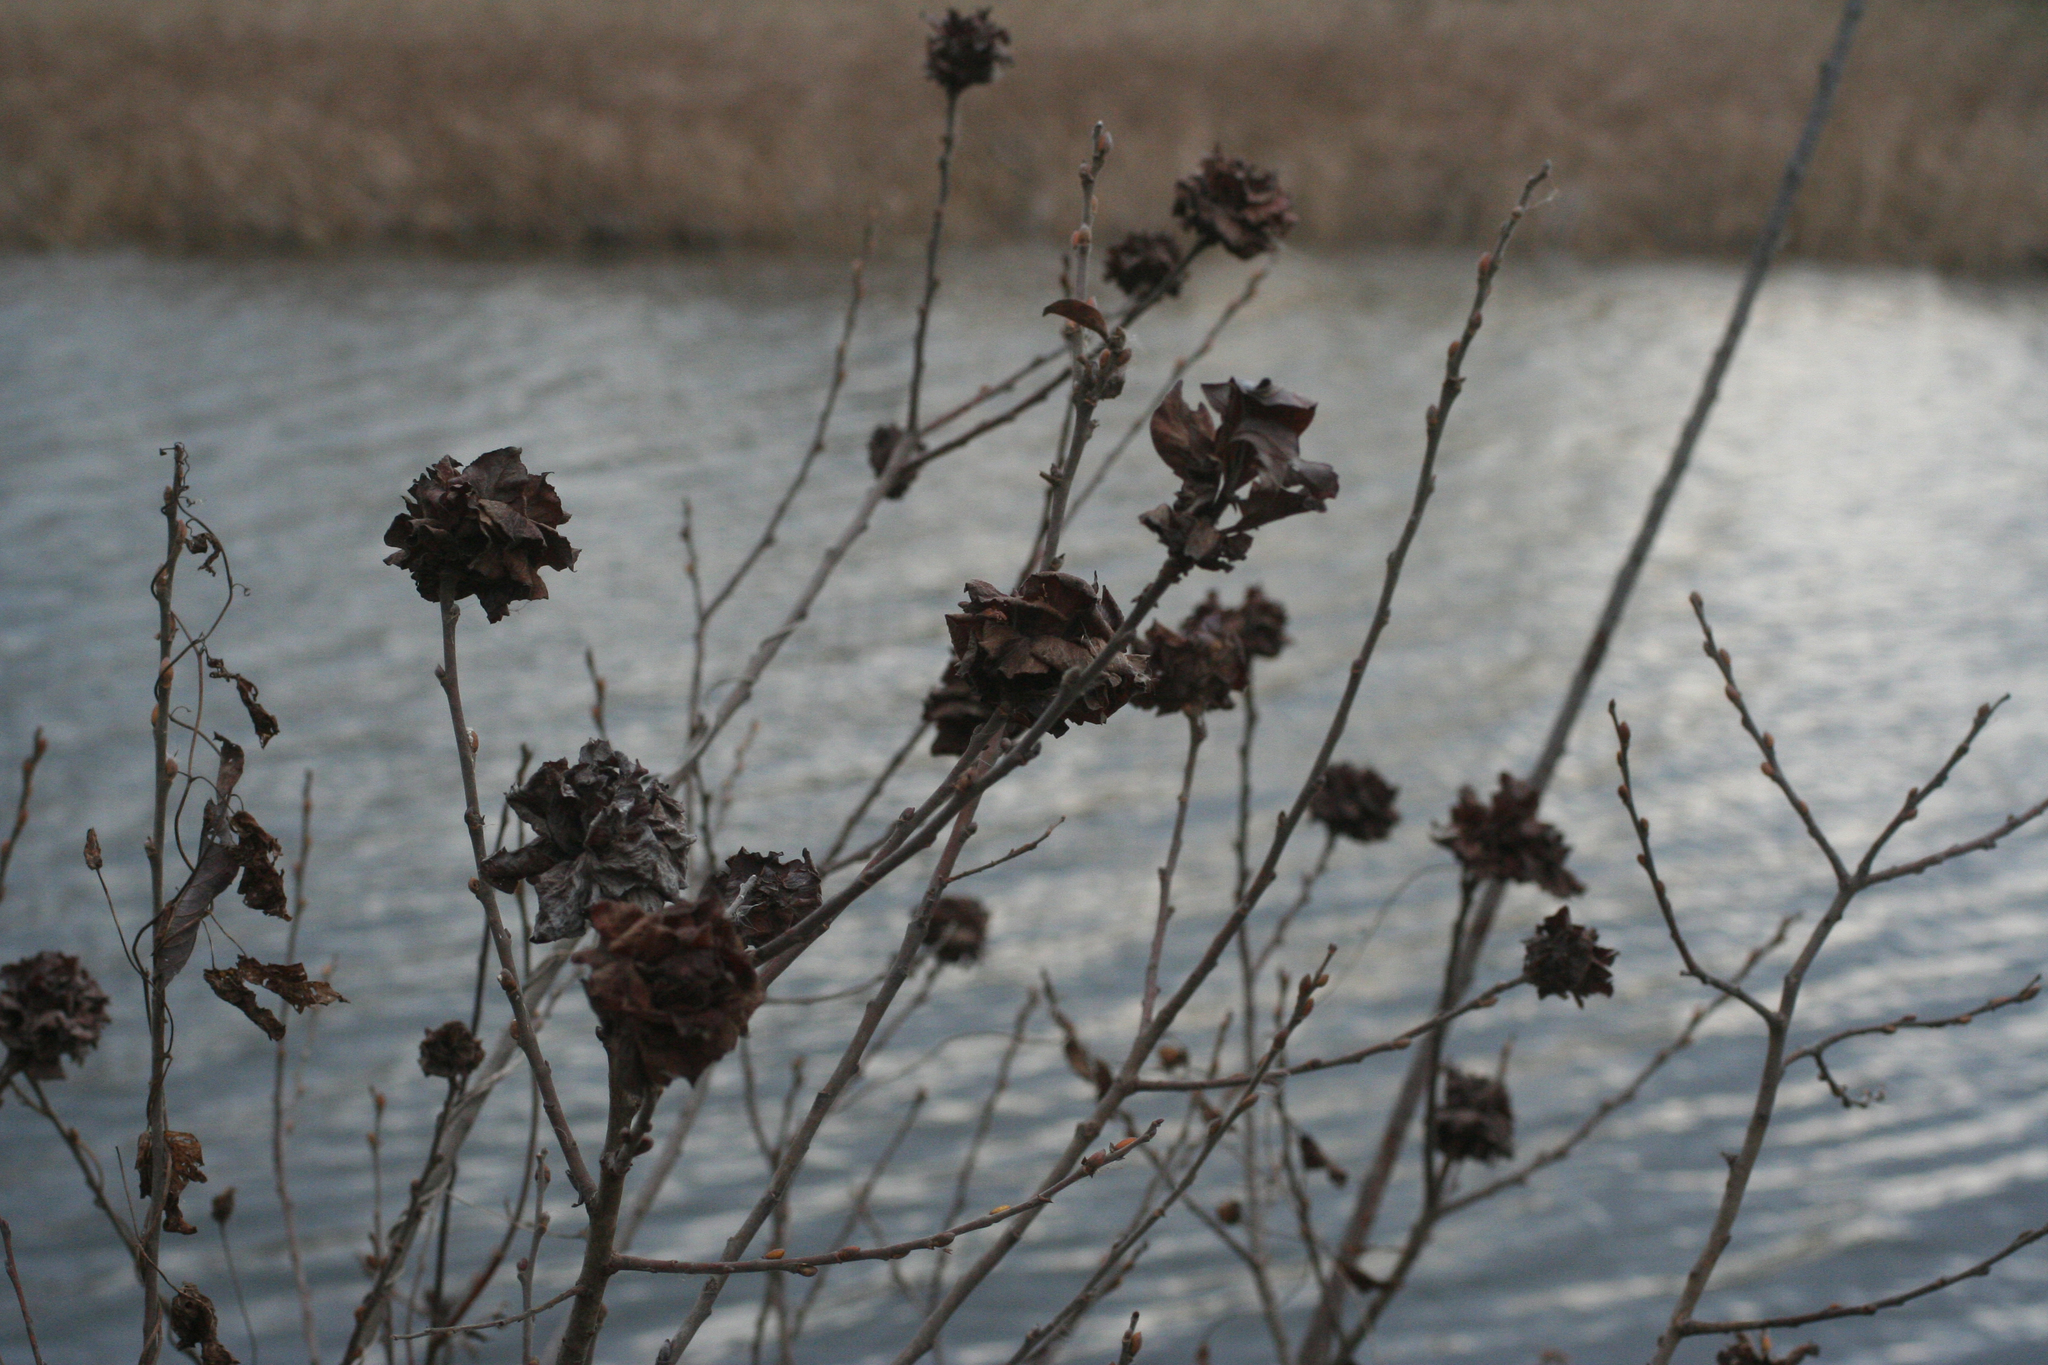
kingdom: Plantae
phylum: Tracheophyta
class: Magnoliopsida
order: Malpighiales
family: Salicaceae
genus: Salix
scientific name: Salix cinerea
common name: Common sallow
